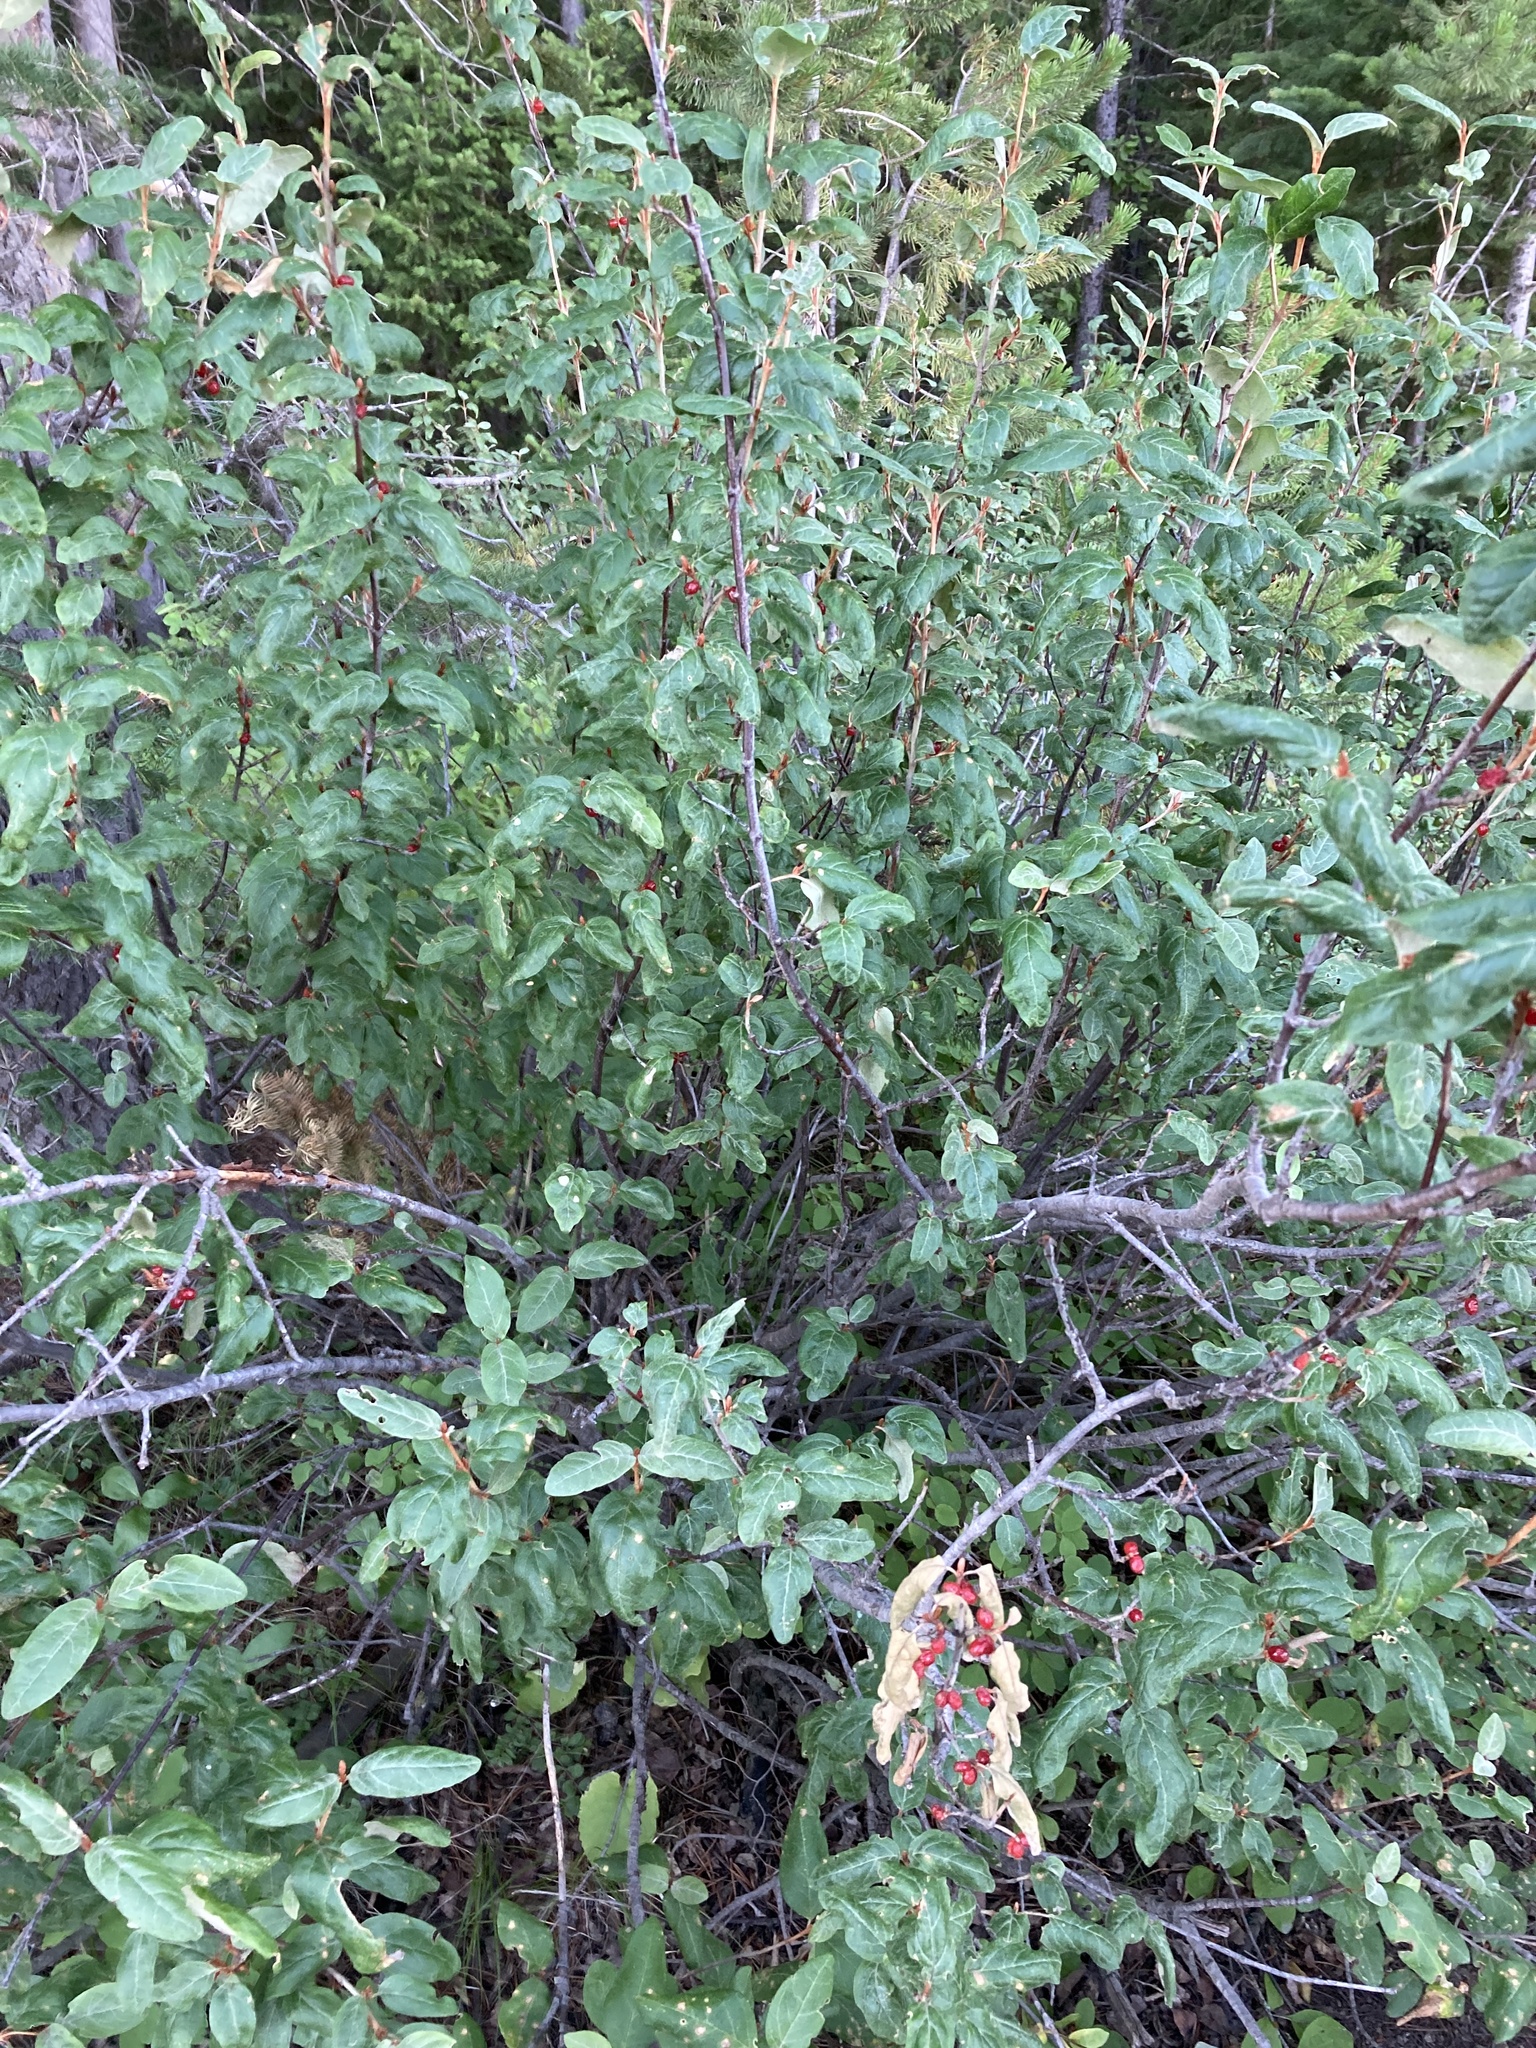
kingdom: Plantae
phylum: Tracheophyta
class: Magnoliopsida
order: Rosales
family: Elaeagnaceae
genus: Shepherdia
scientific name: Shepherdia canadensis
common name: Soapberry
